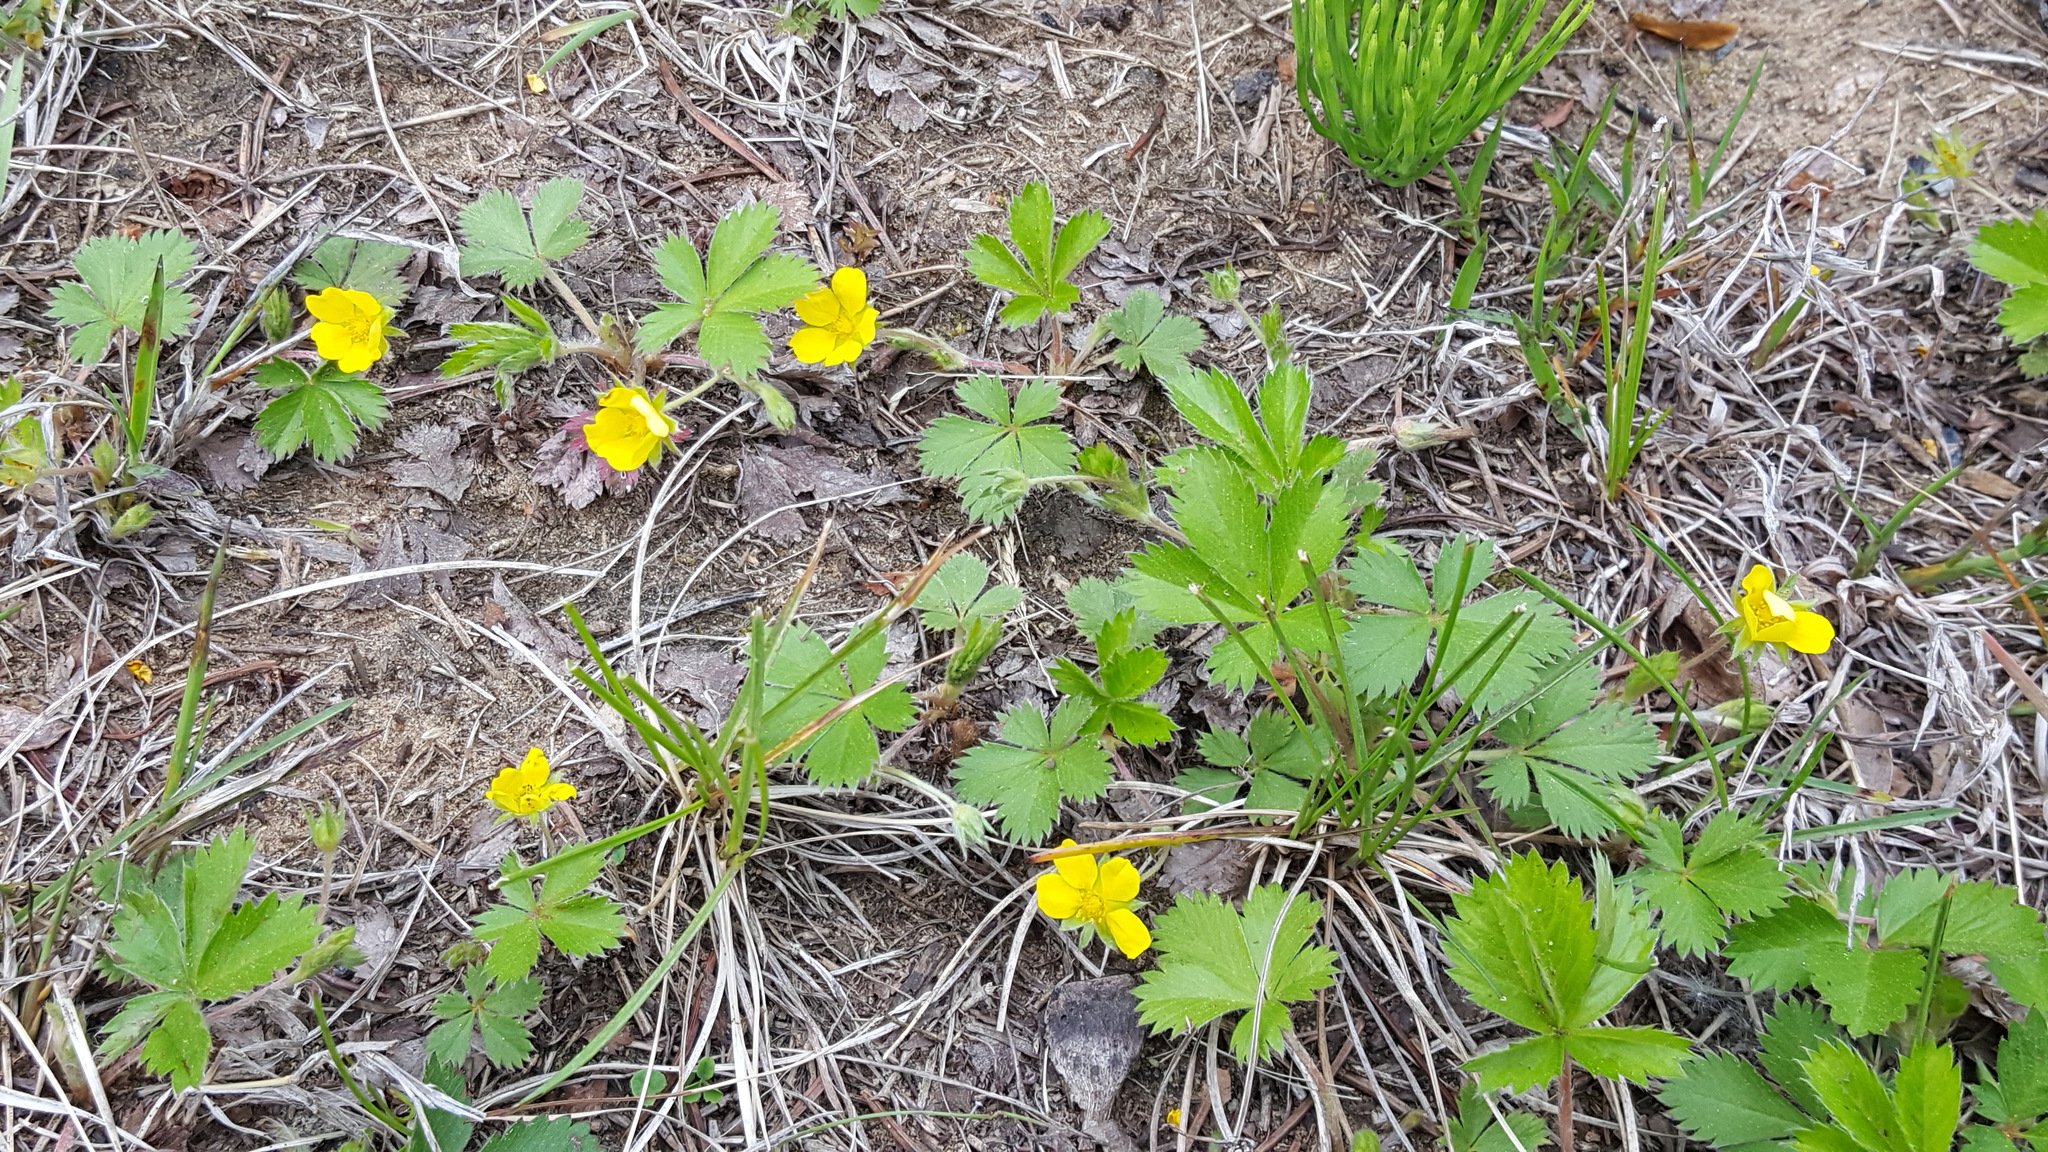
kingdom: Plantae
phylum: Tracheophyta
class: Magnoliopsida
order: Rosales
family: Rosaceae
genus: Potentilla
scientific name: Potentilla canadensis
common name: Canada cinquefoil
